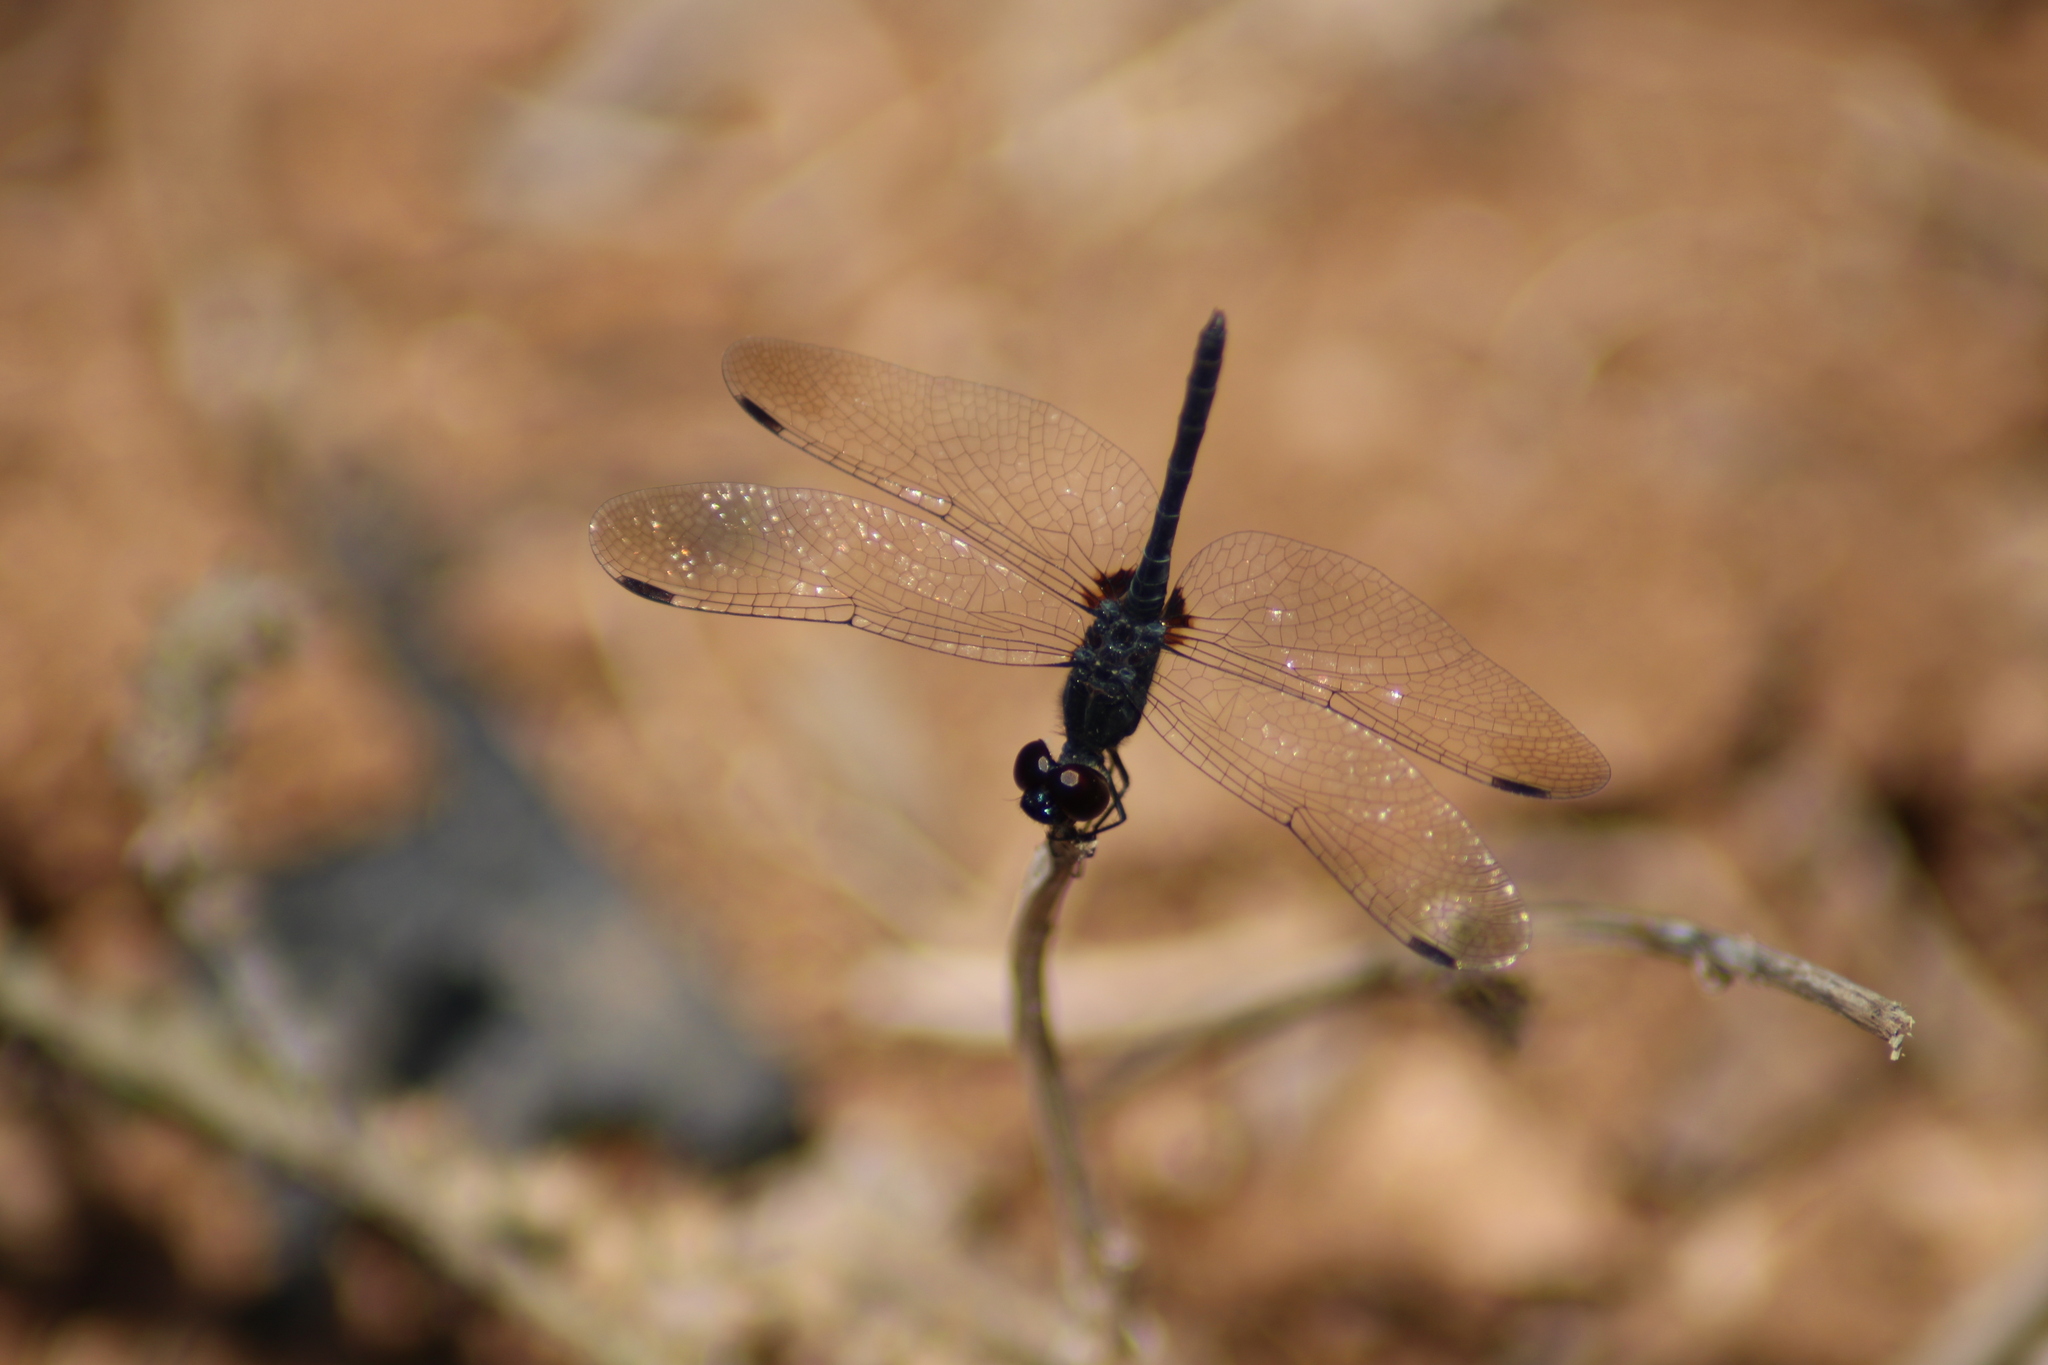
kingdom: Animalia
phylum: Arthropoda
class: Insecta
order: Odonata
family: Libellulidae
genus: Diplacodes
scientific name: Diplacodes lefebvrii
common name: Black percher
